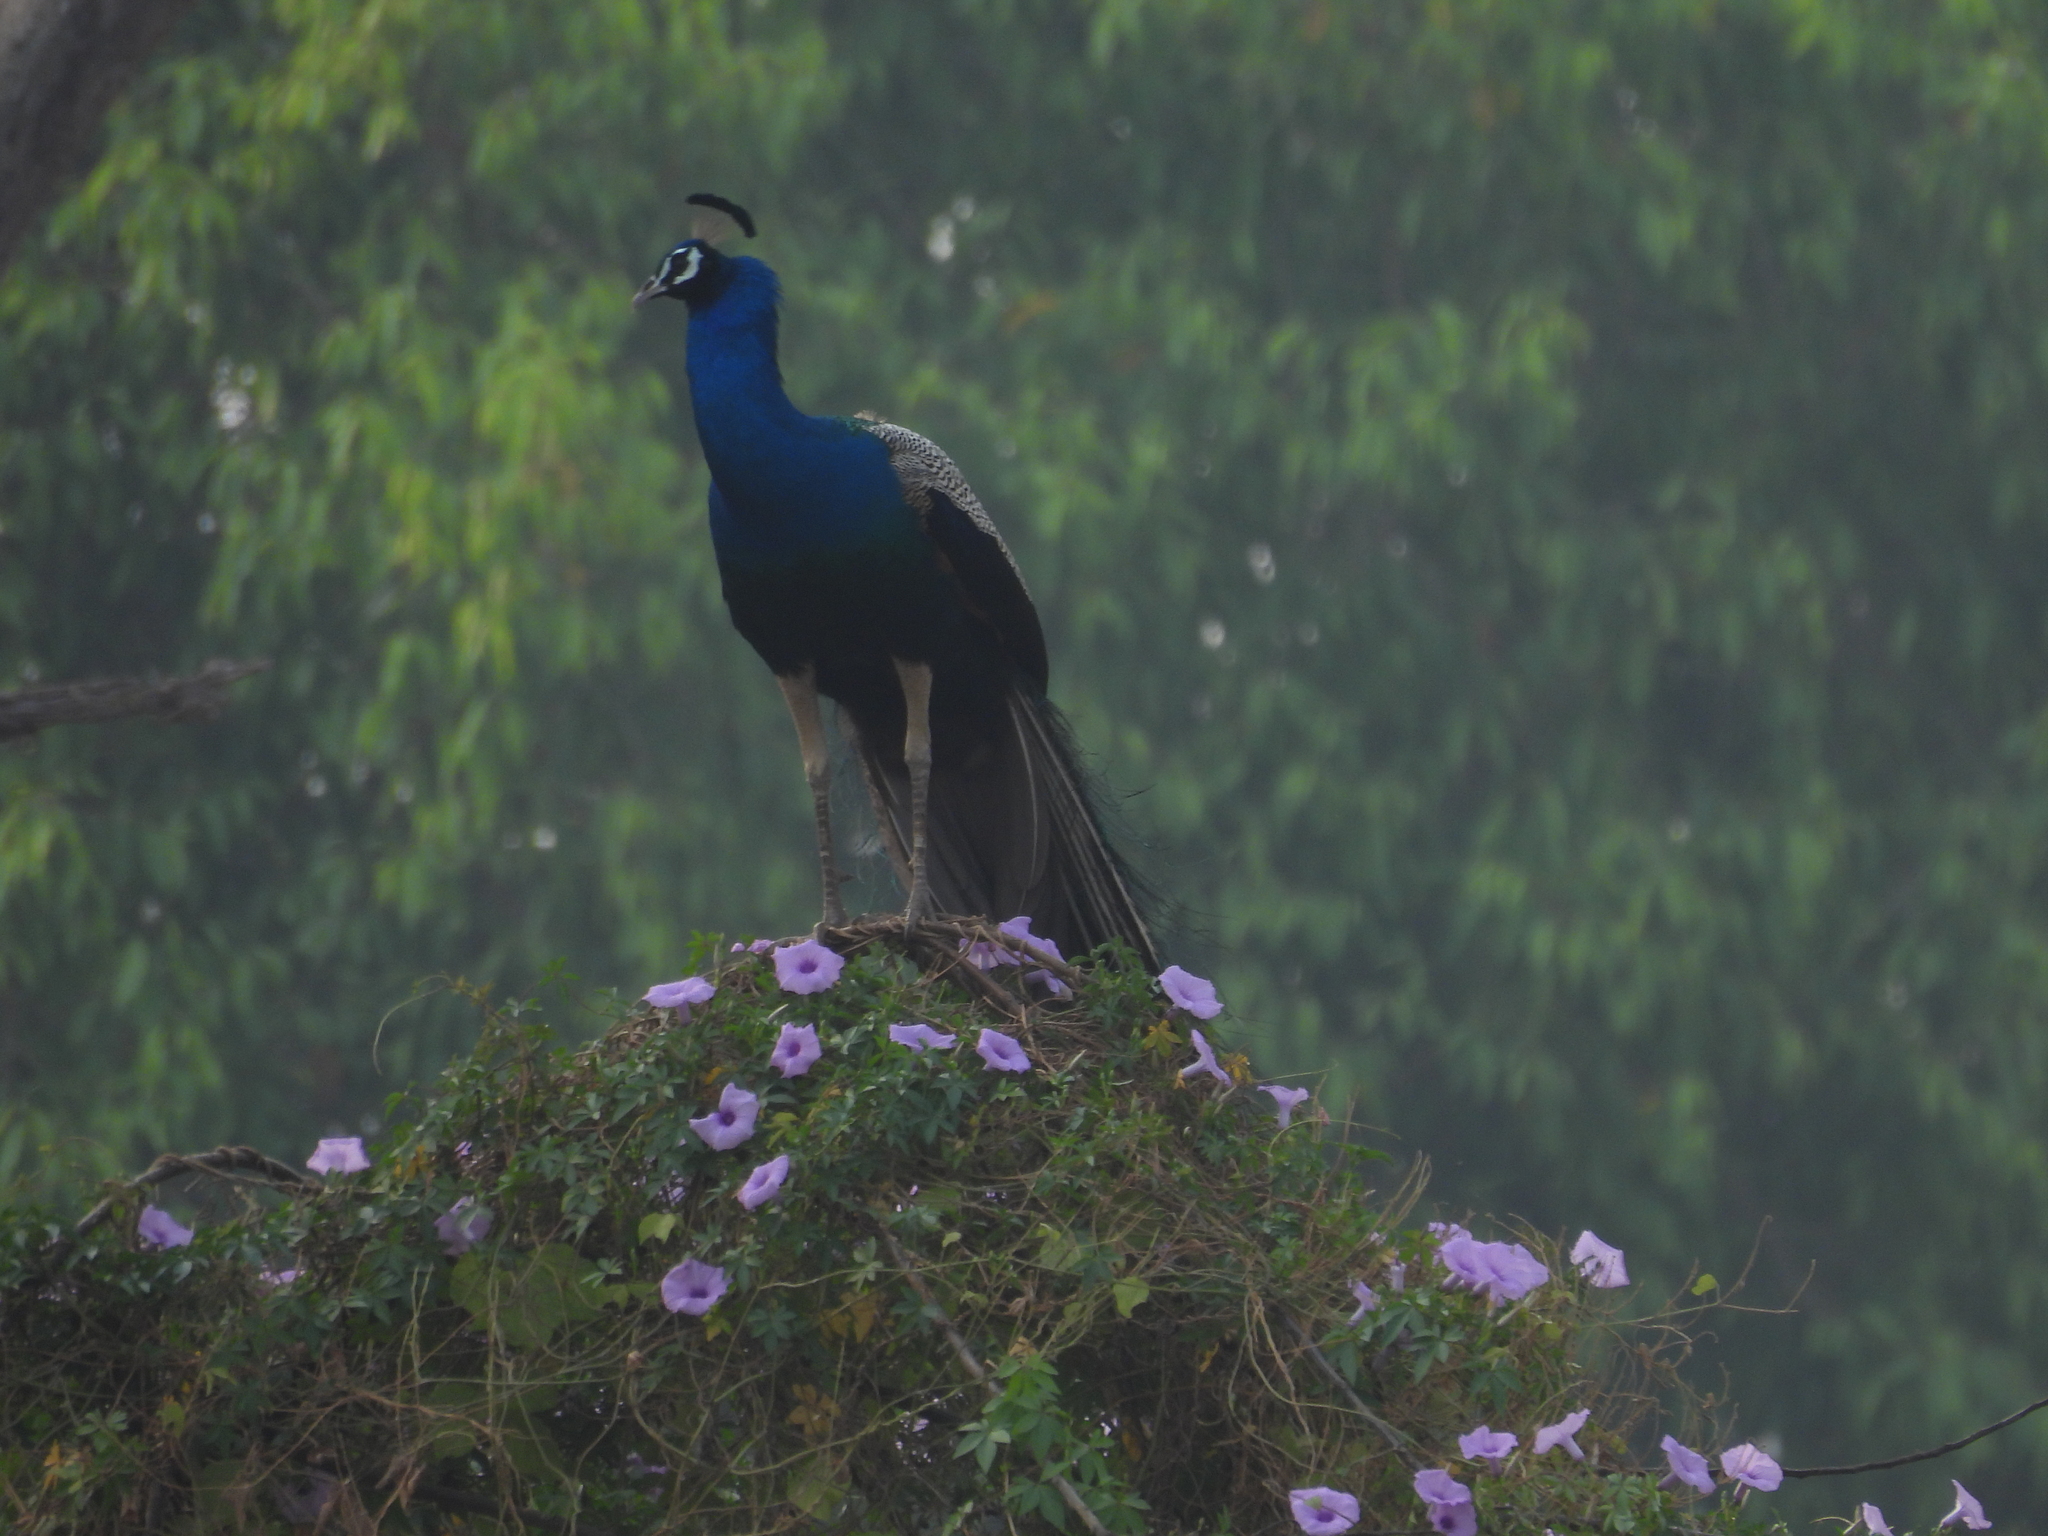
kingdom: Animalia
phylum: Chordata
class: Aves
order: Galliformes
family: Phasianidae
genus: Pavo
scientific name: Pavo cristatus
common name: Indian peafowl
